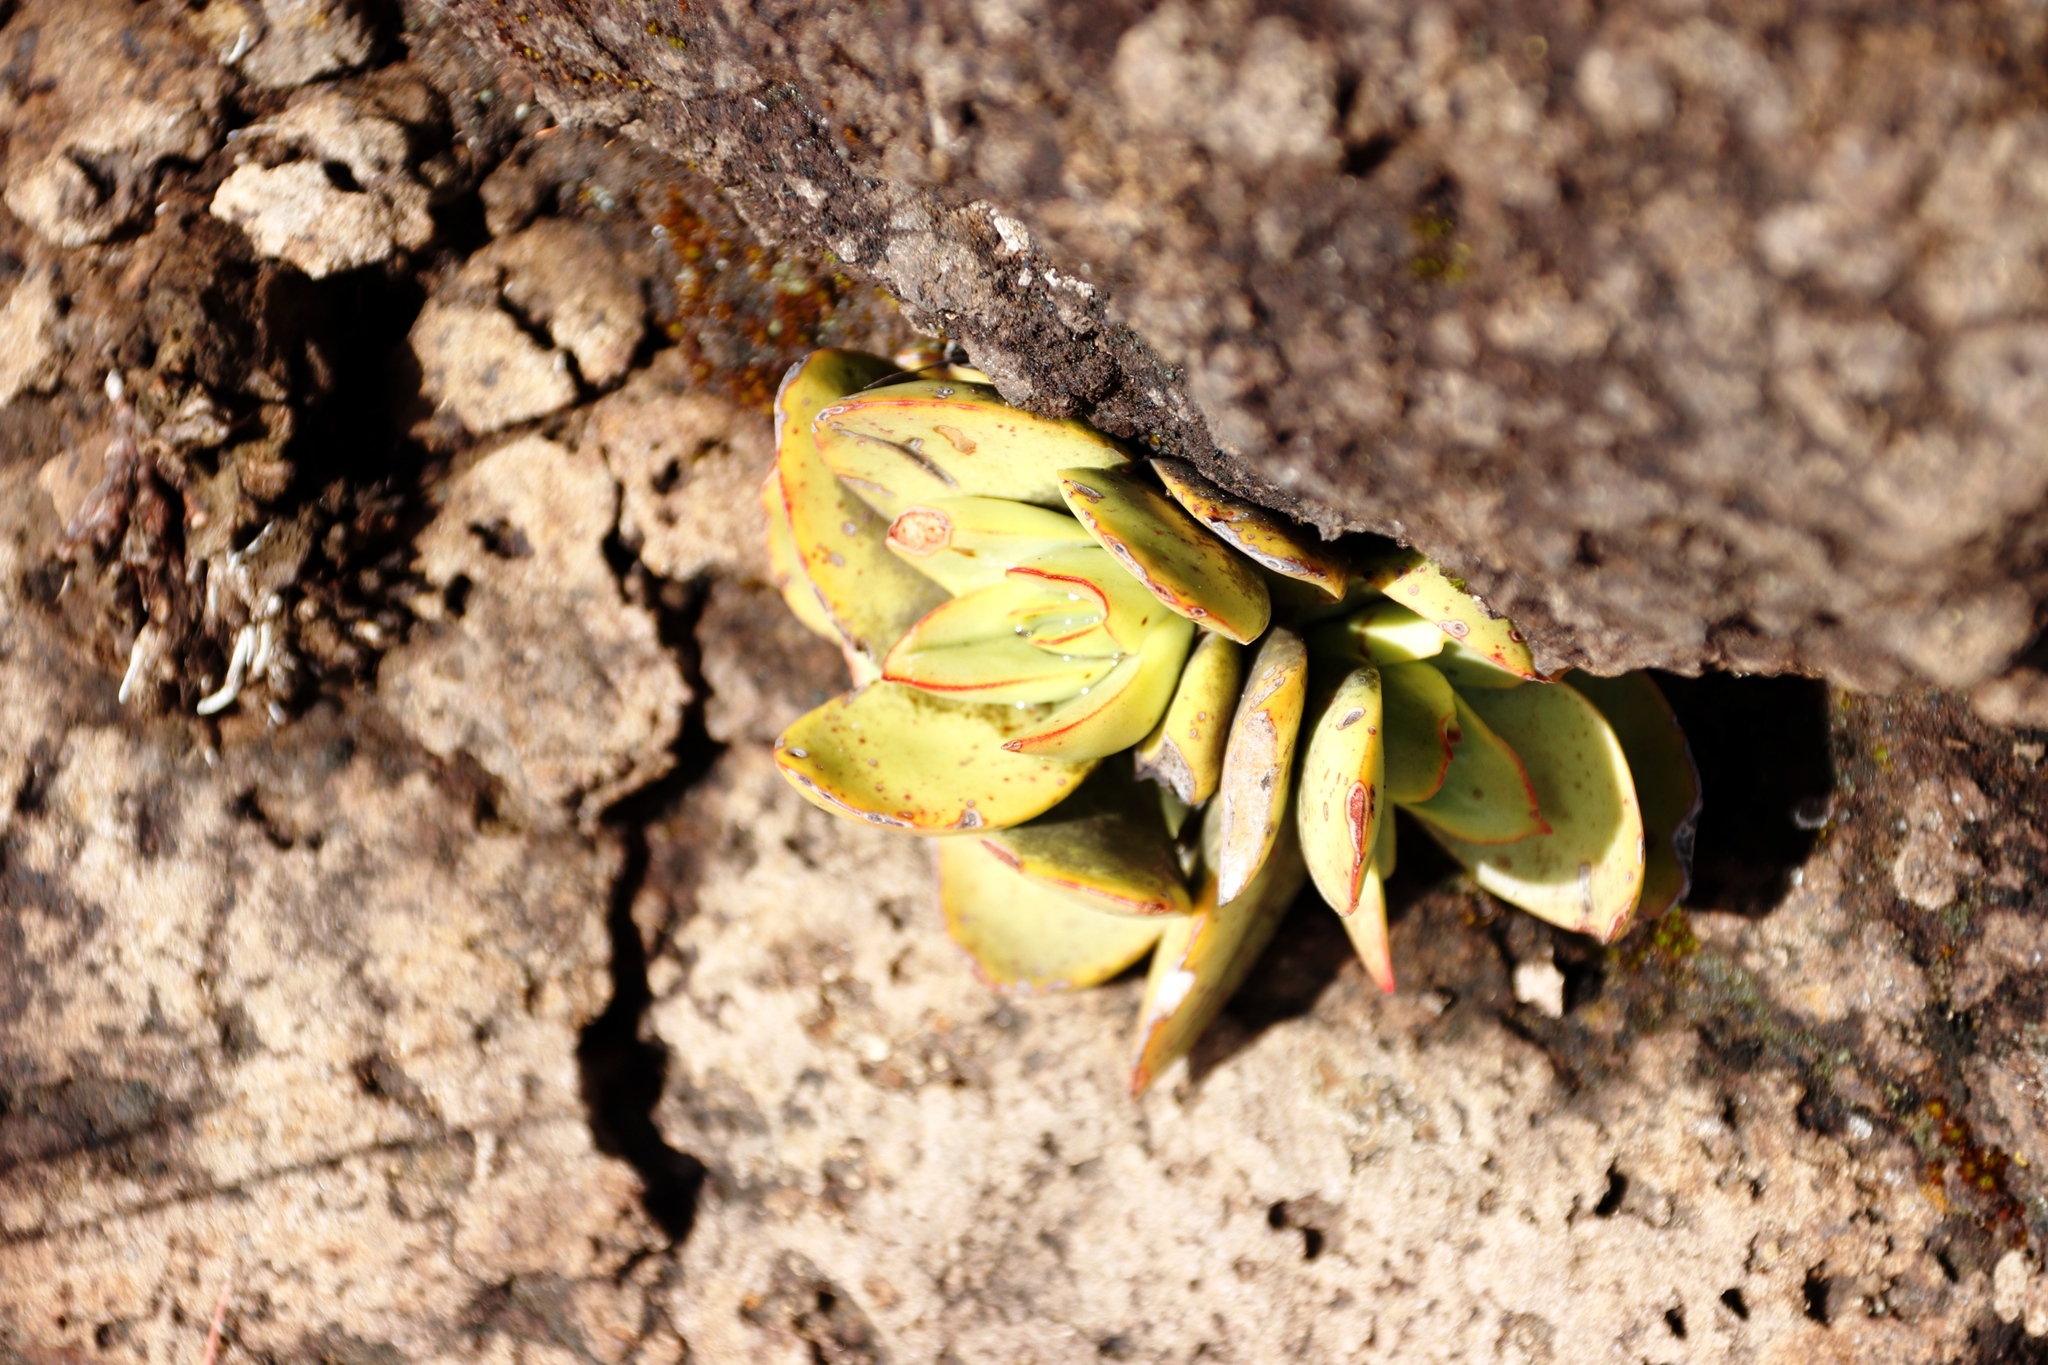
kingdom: Plantae
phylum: Tracheophyta
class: Magnoliopsida
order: Saxifragales
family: Crassulaceae
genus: Crassula
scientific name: Crassula nudicaulis
